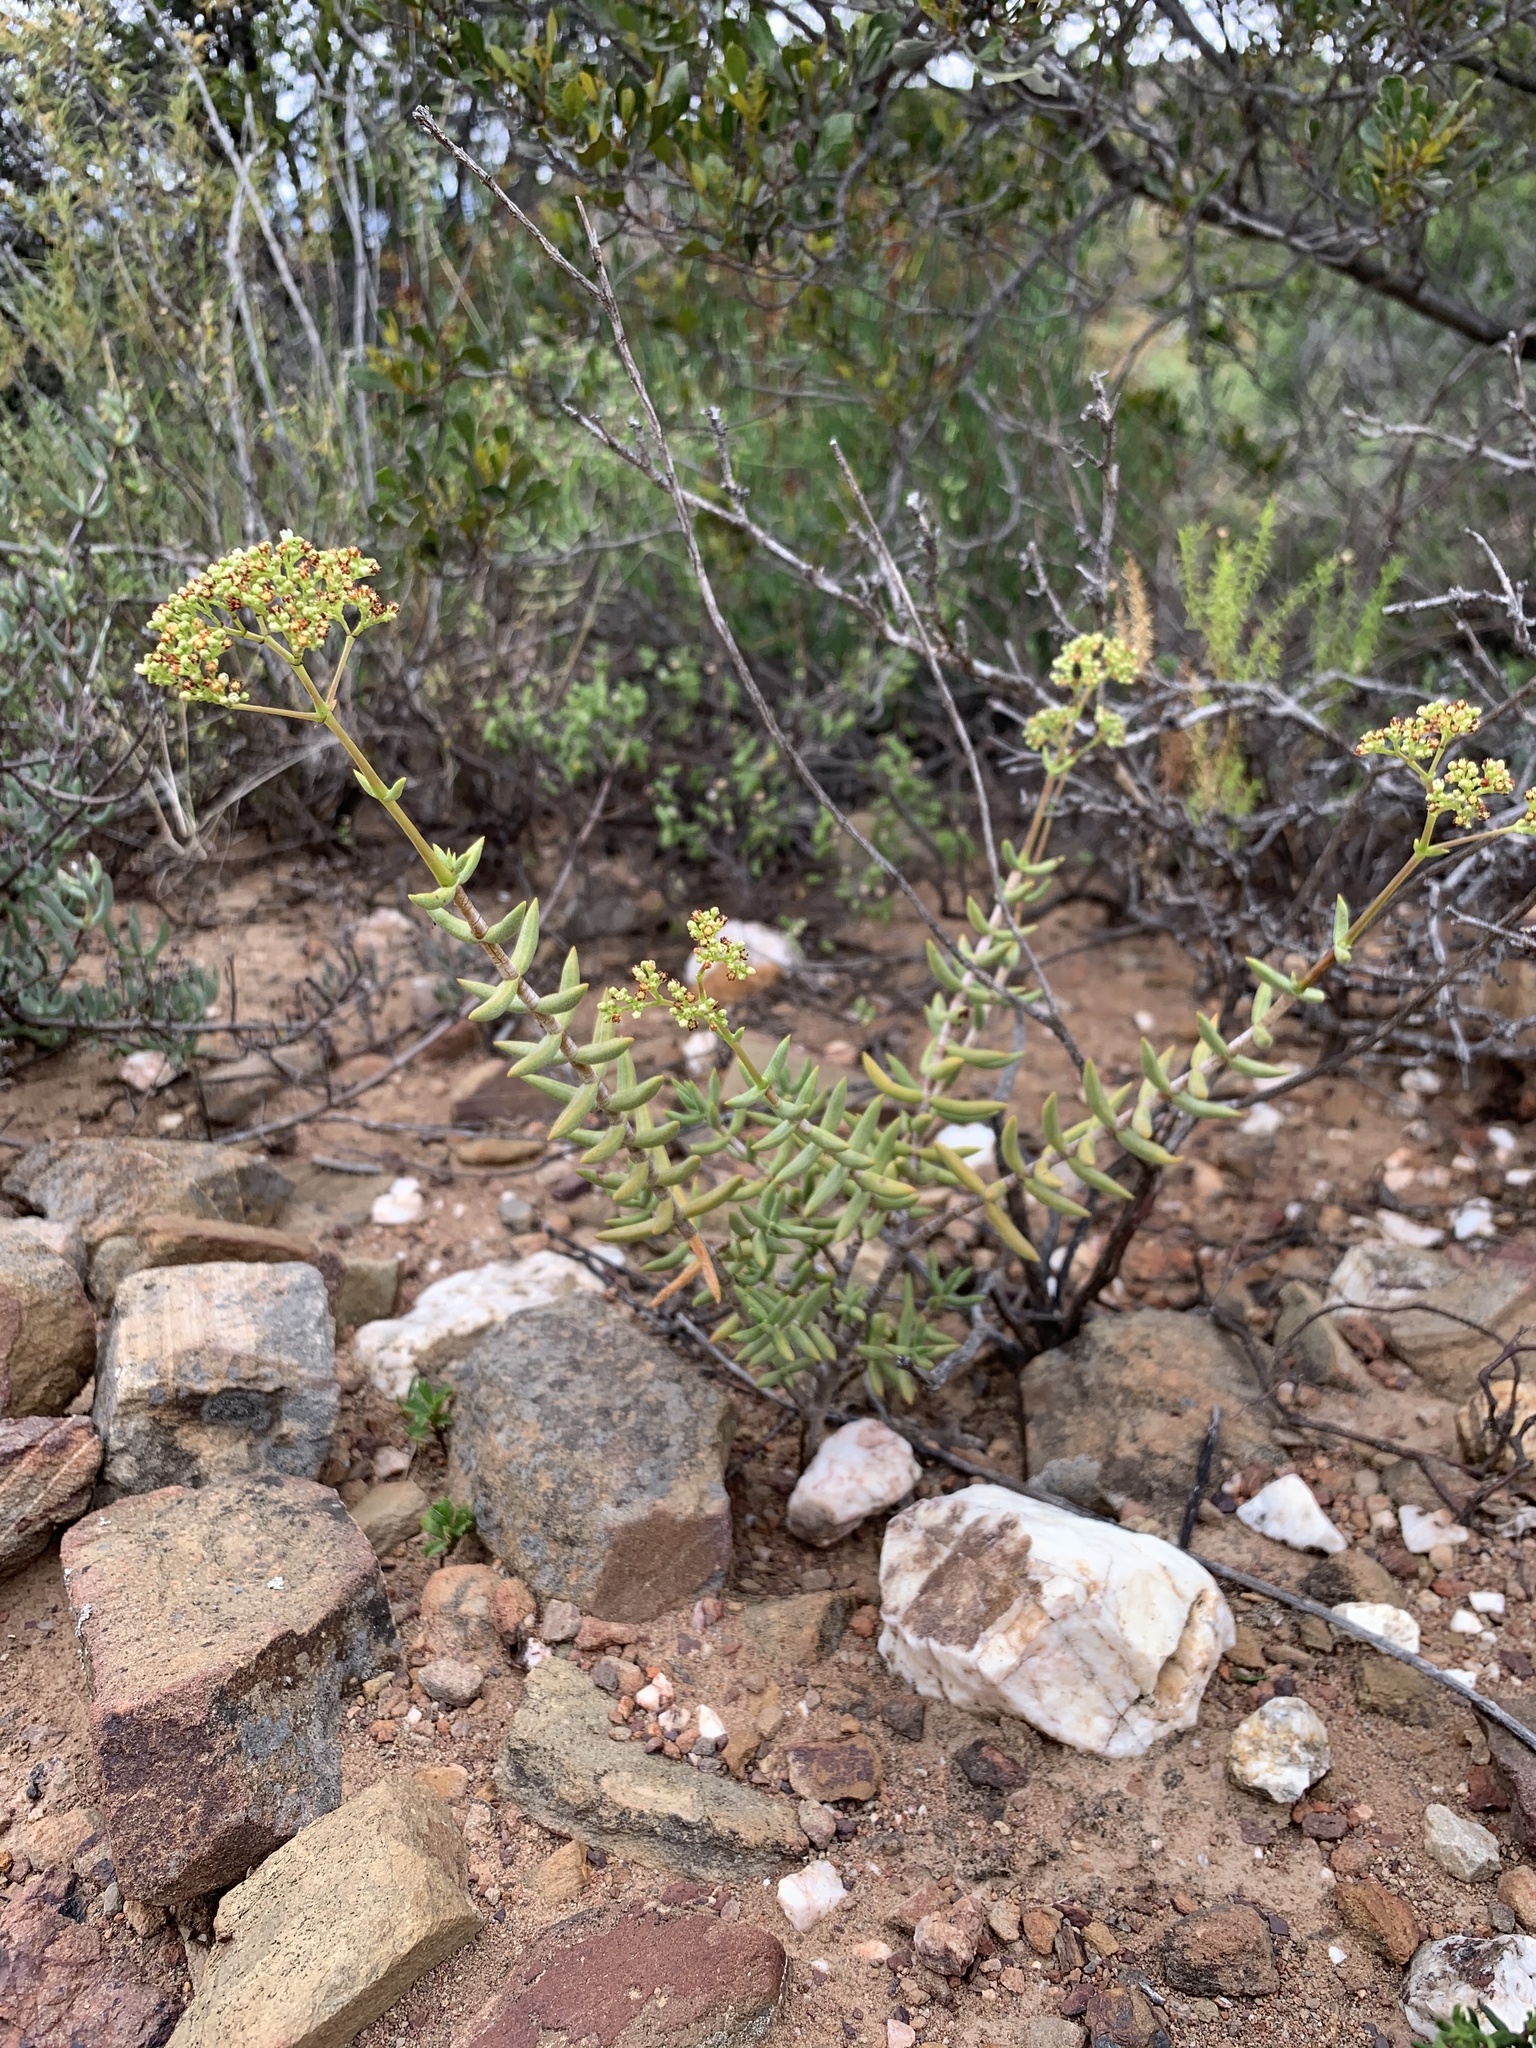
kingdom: Plantae
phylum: Tracheophyta
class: Magnoliopsida
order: Saxifragales
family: Crassulaceae
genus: Crassula
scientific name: Crassula tetragona
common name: Pygmyweed
